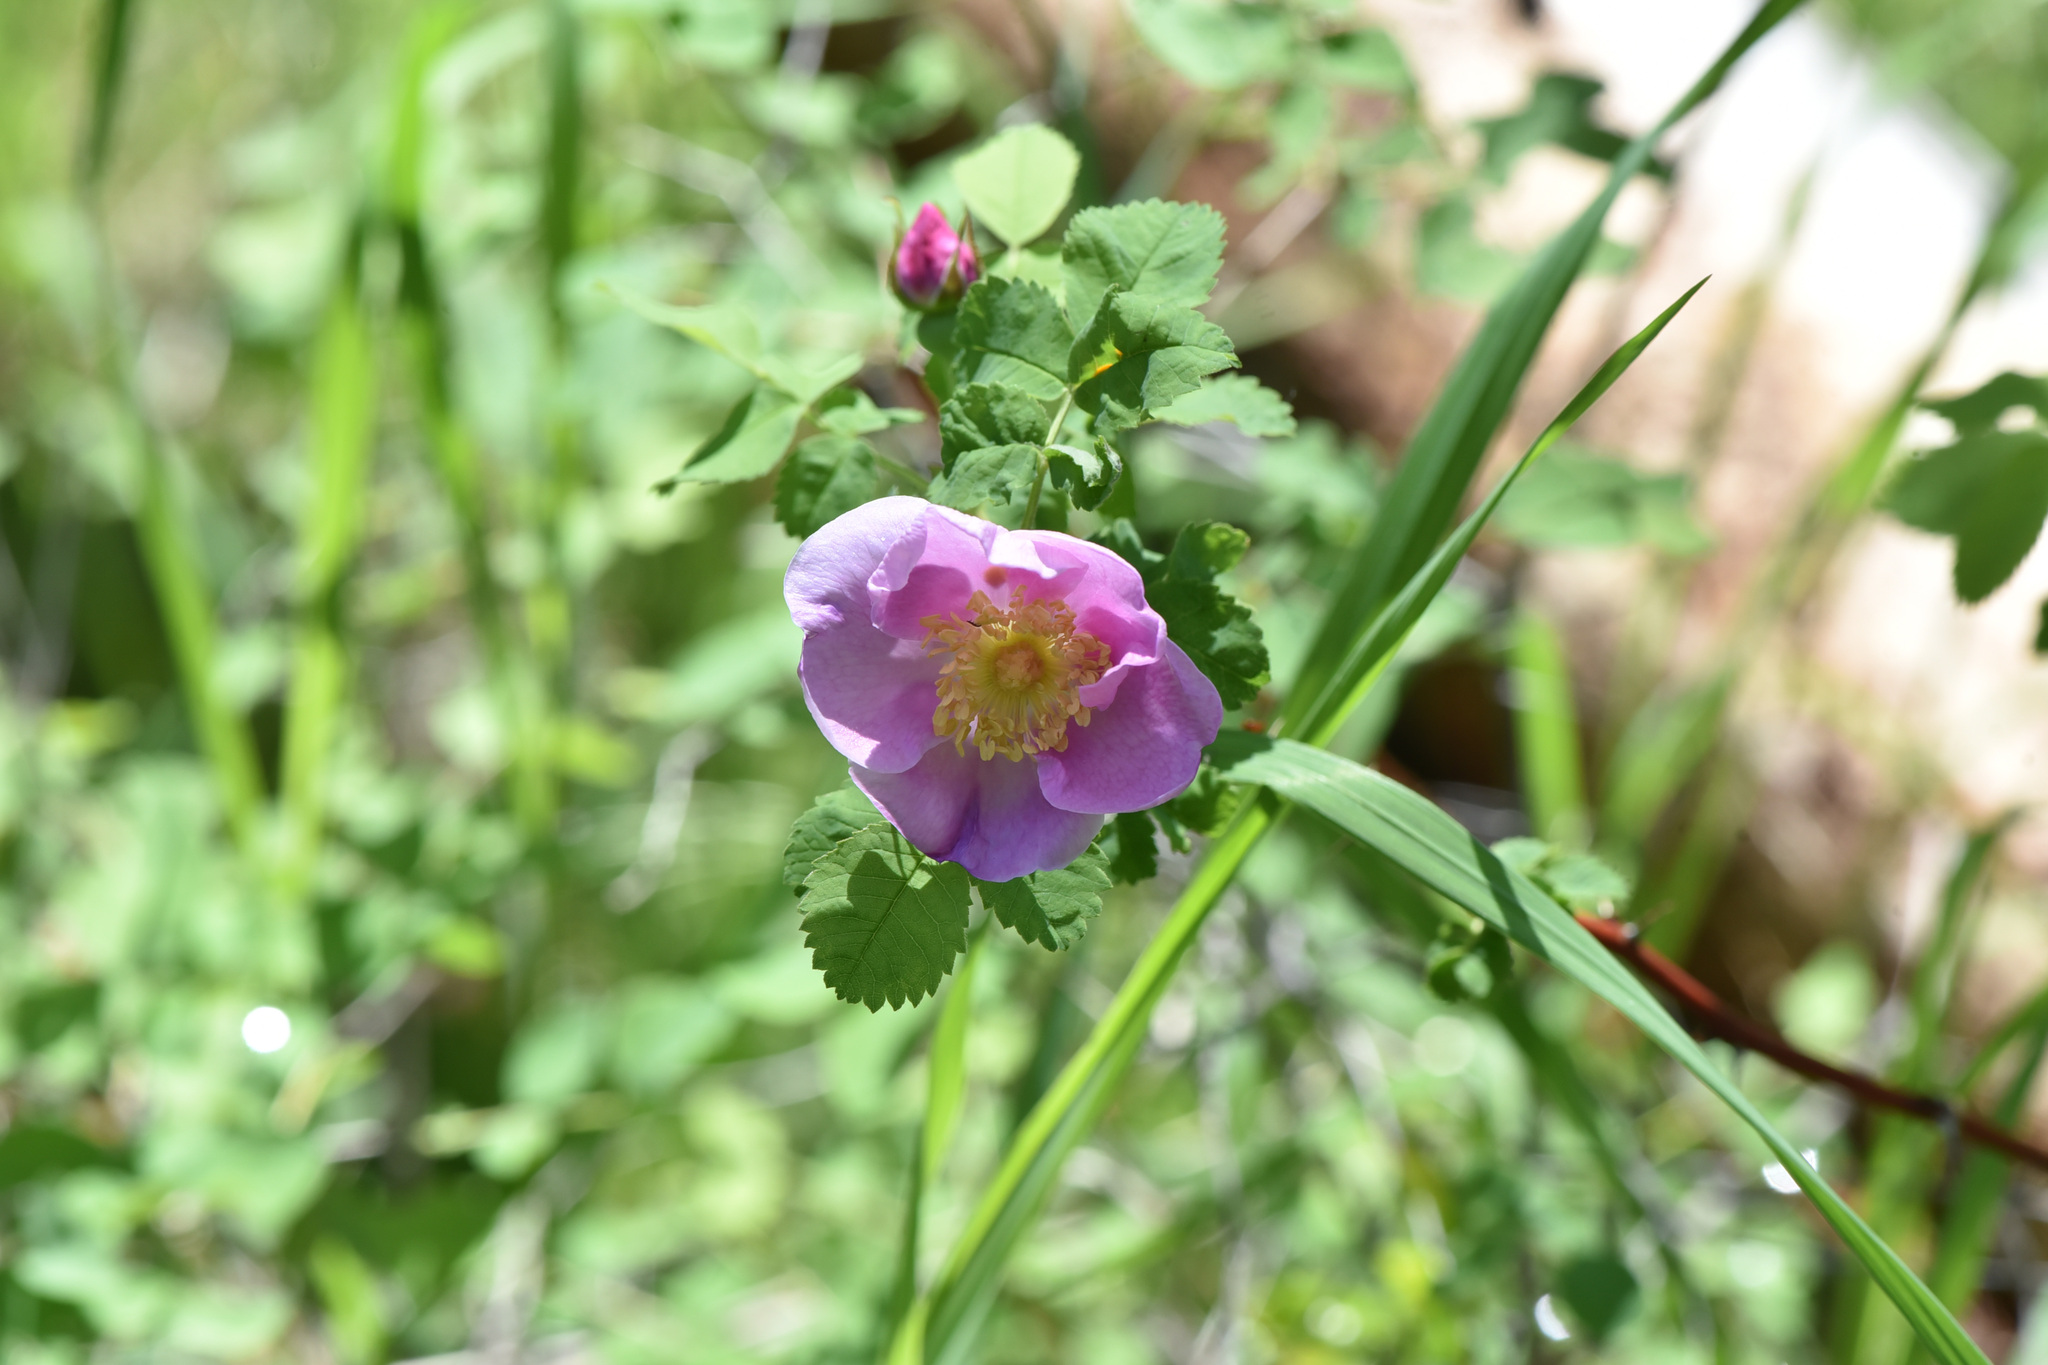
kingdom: Plantae
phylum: Tracheophyta
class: Magnoliopsida
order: Rosales
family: Rosaceae
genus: Rosa
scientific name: Rosa woodsii
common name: Woods's rose
